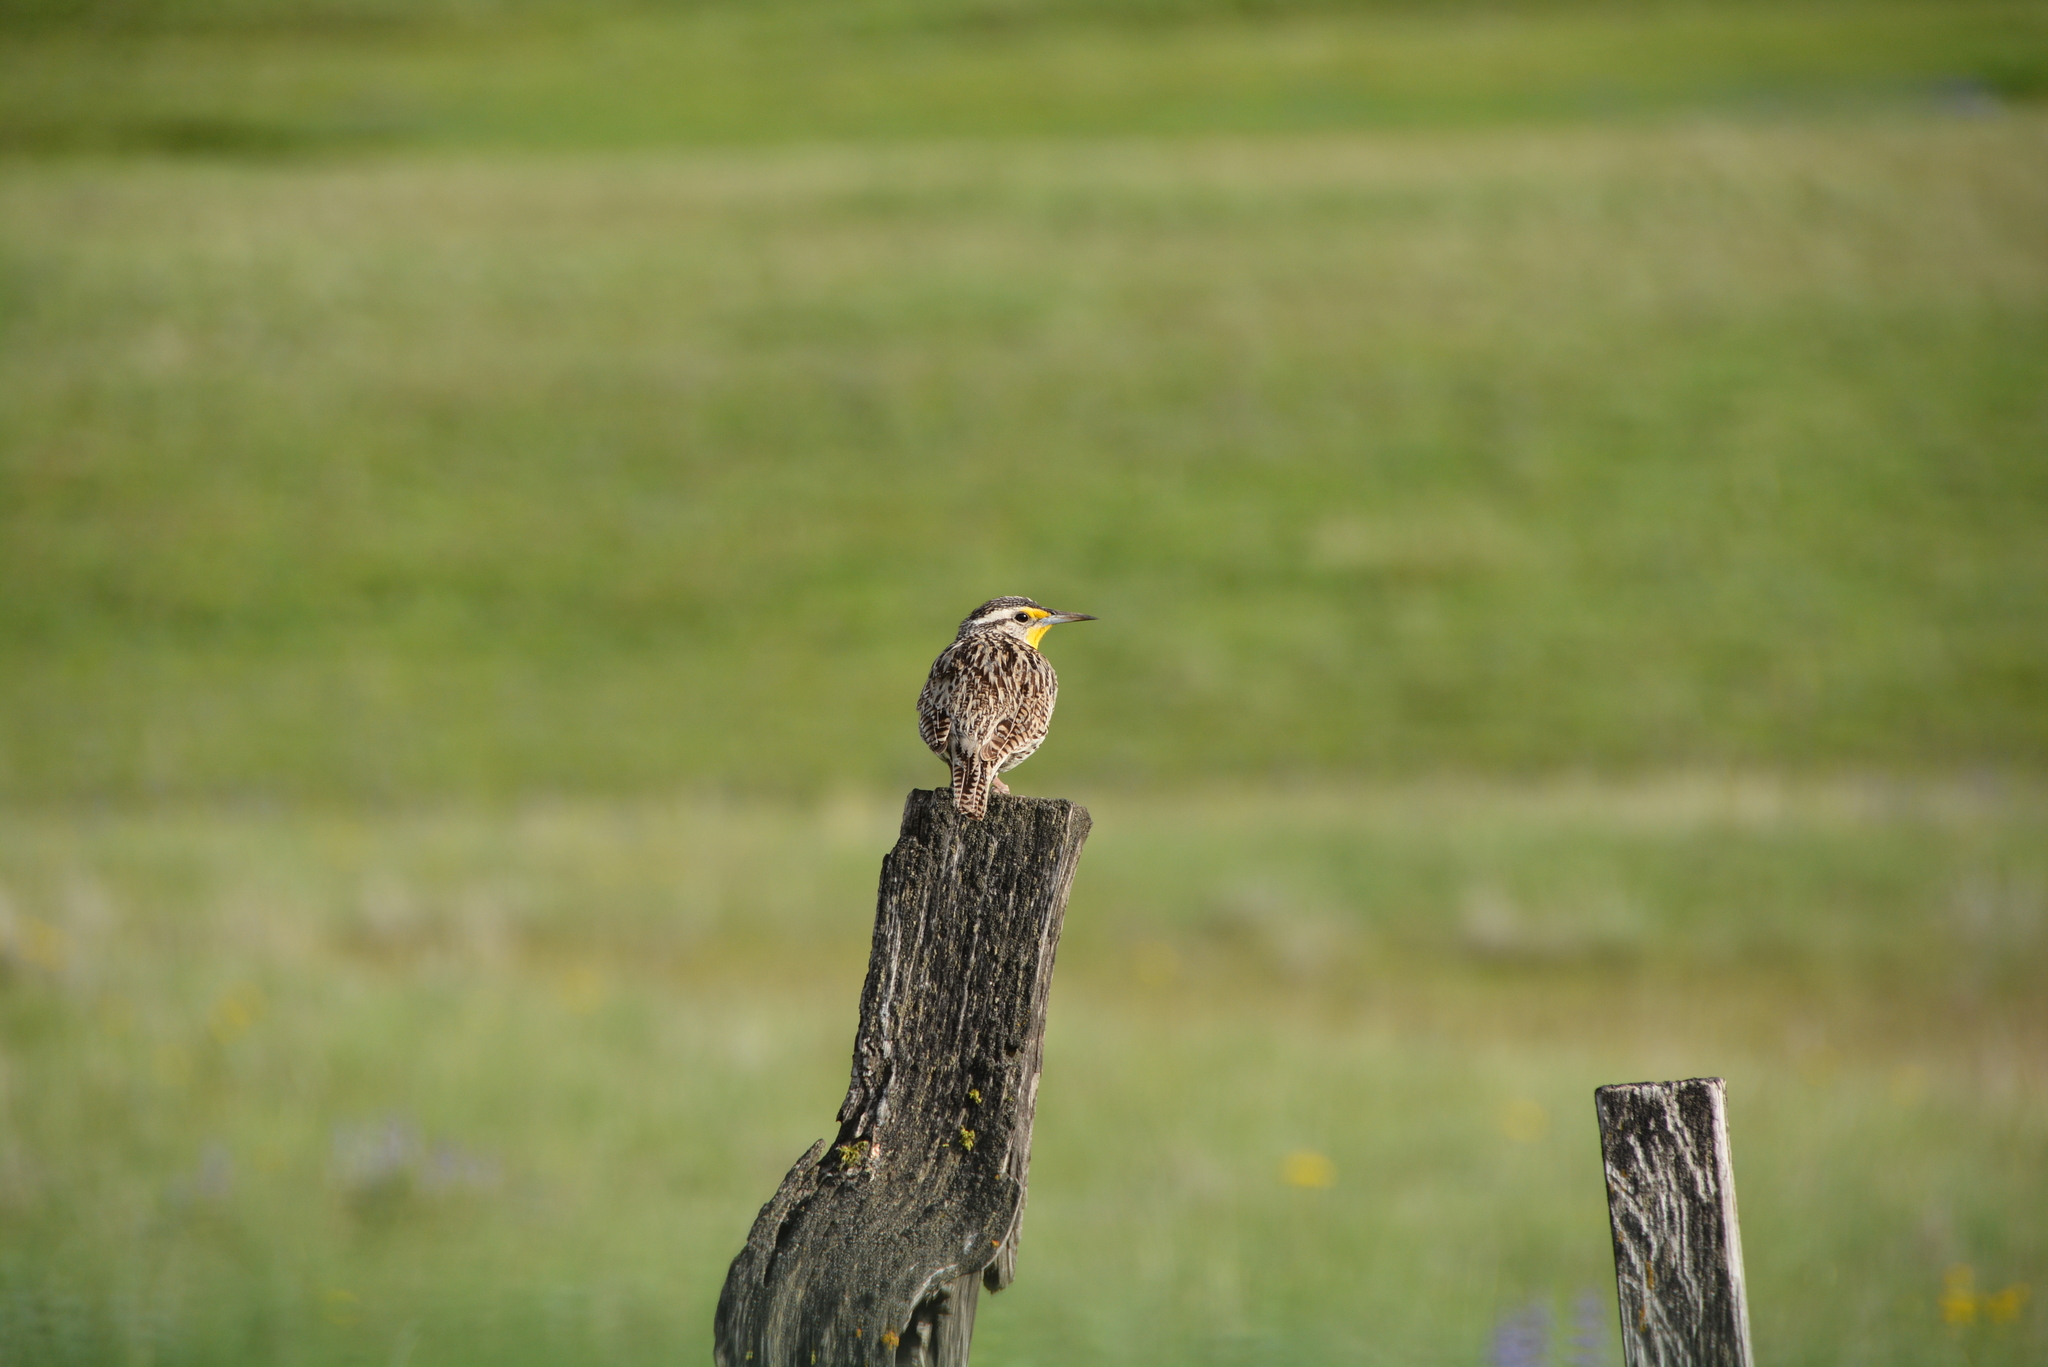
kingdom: Animalia
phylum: Chordata
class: Aves
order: Passeriformes
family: Icteridae
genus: Sturnella
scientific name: Sturnella neglecta
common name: Western meadowlark
